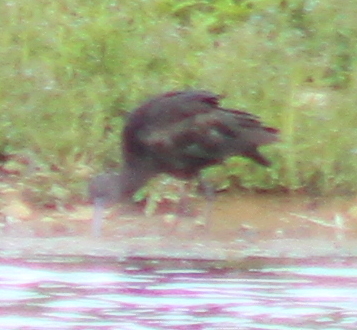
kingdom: Animalia
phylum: Chordata
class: Aves
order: Pelecaniformes
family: Threskiornithidae
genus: Plegadis
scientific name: Plegadis falcinellus
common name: Glossy ibis
